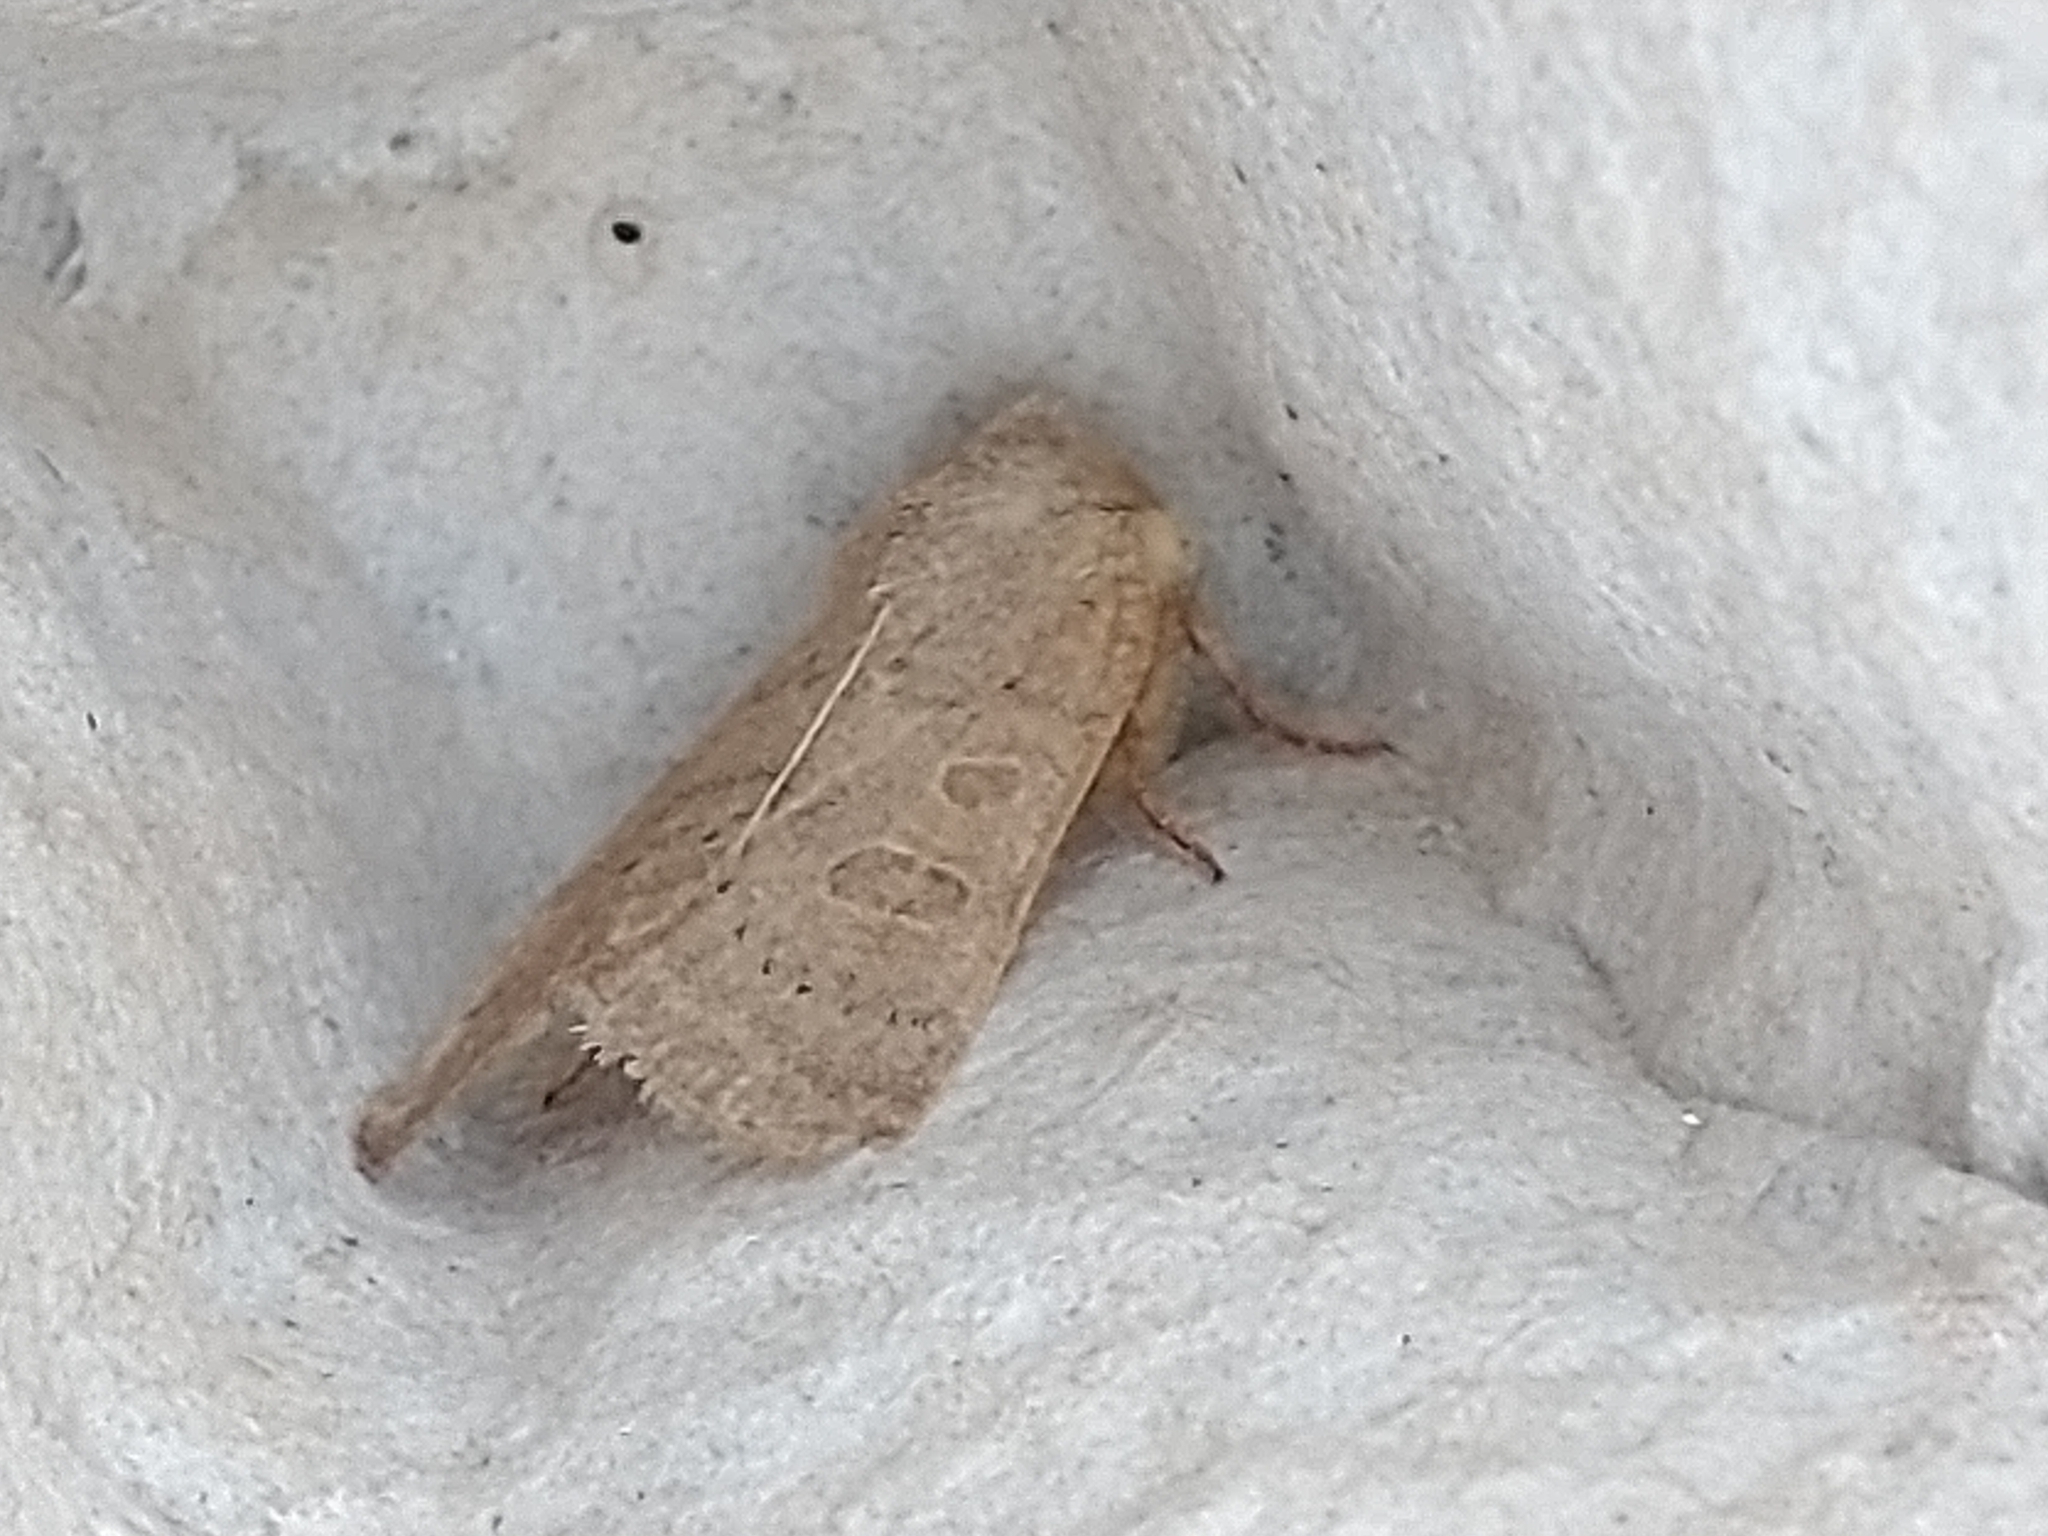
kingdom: Animalia
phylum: Arthropoda
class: Insecta
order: Lepidoptera
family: Noctuidae
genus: Hoplodrina
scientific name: Hoplodrina ambigua
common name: Vine's rustic
